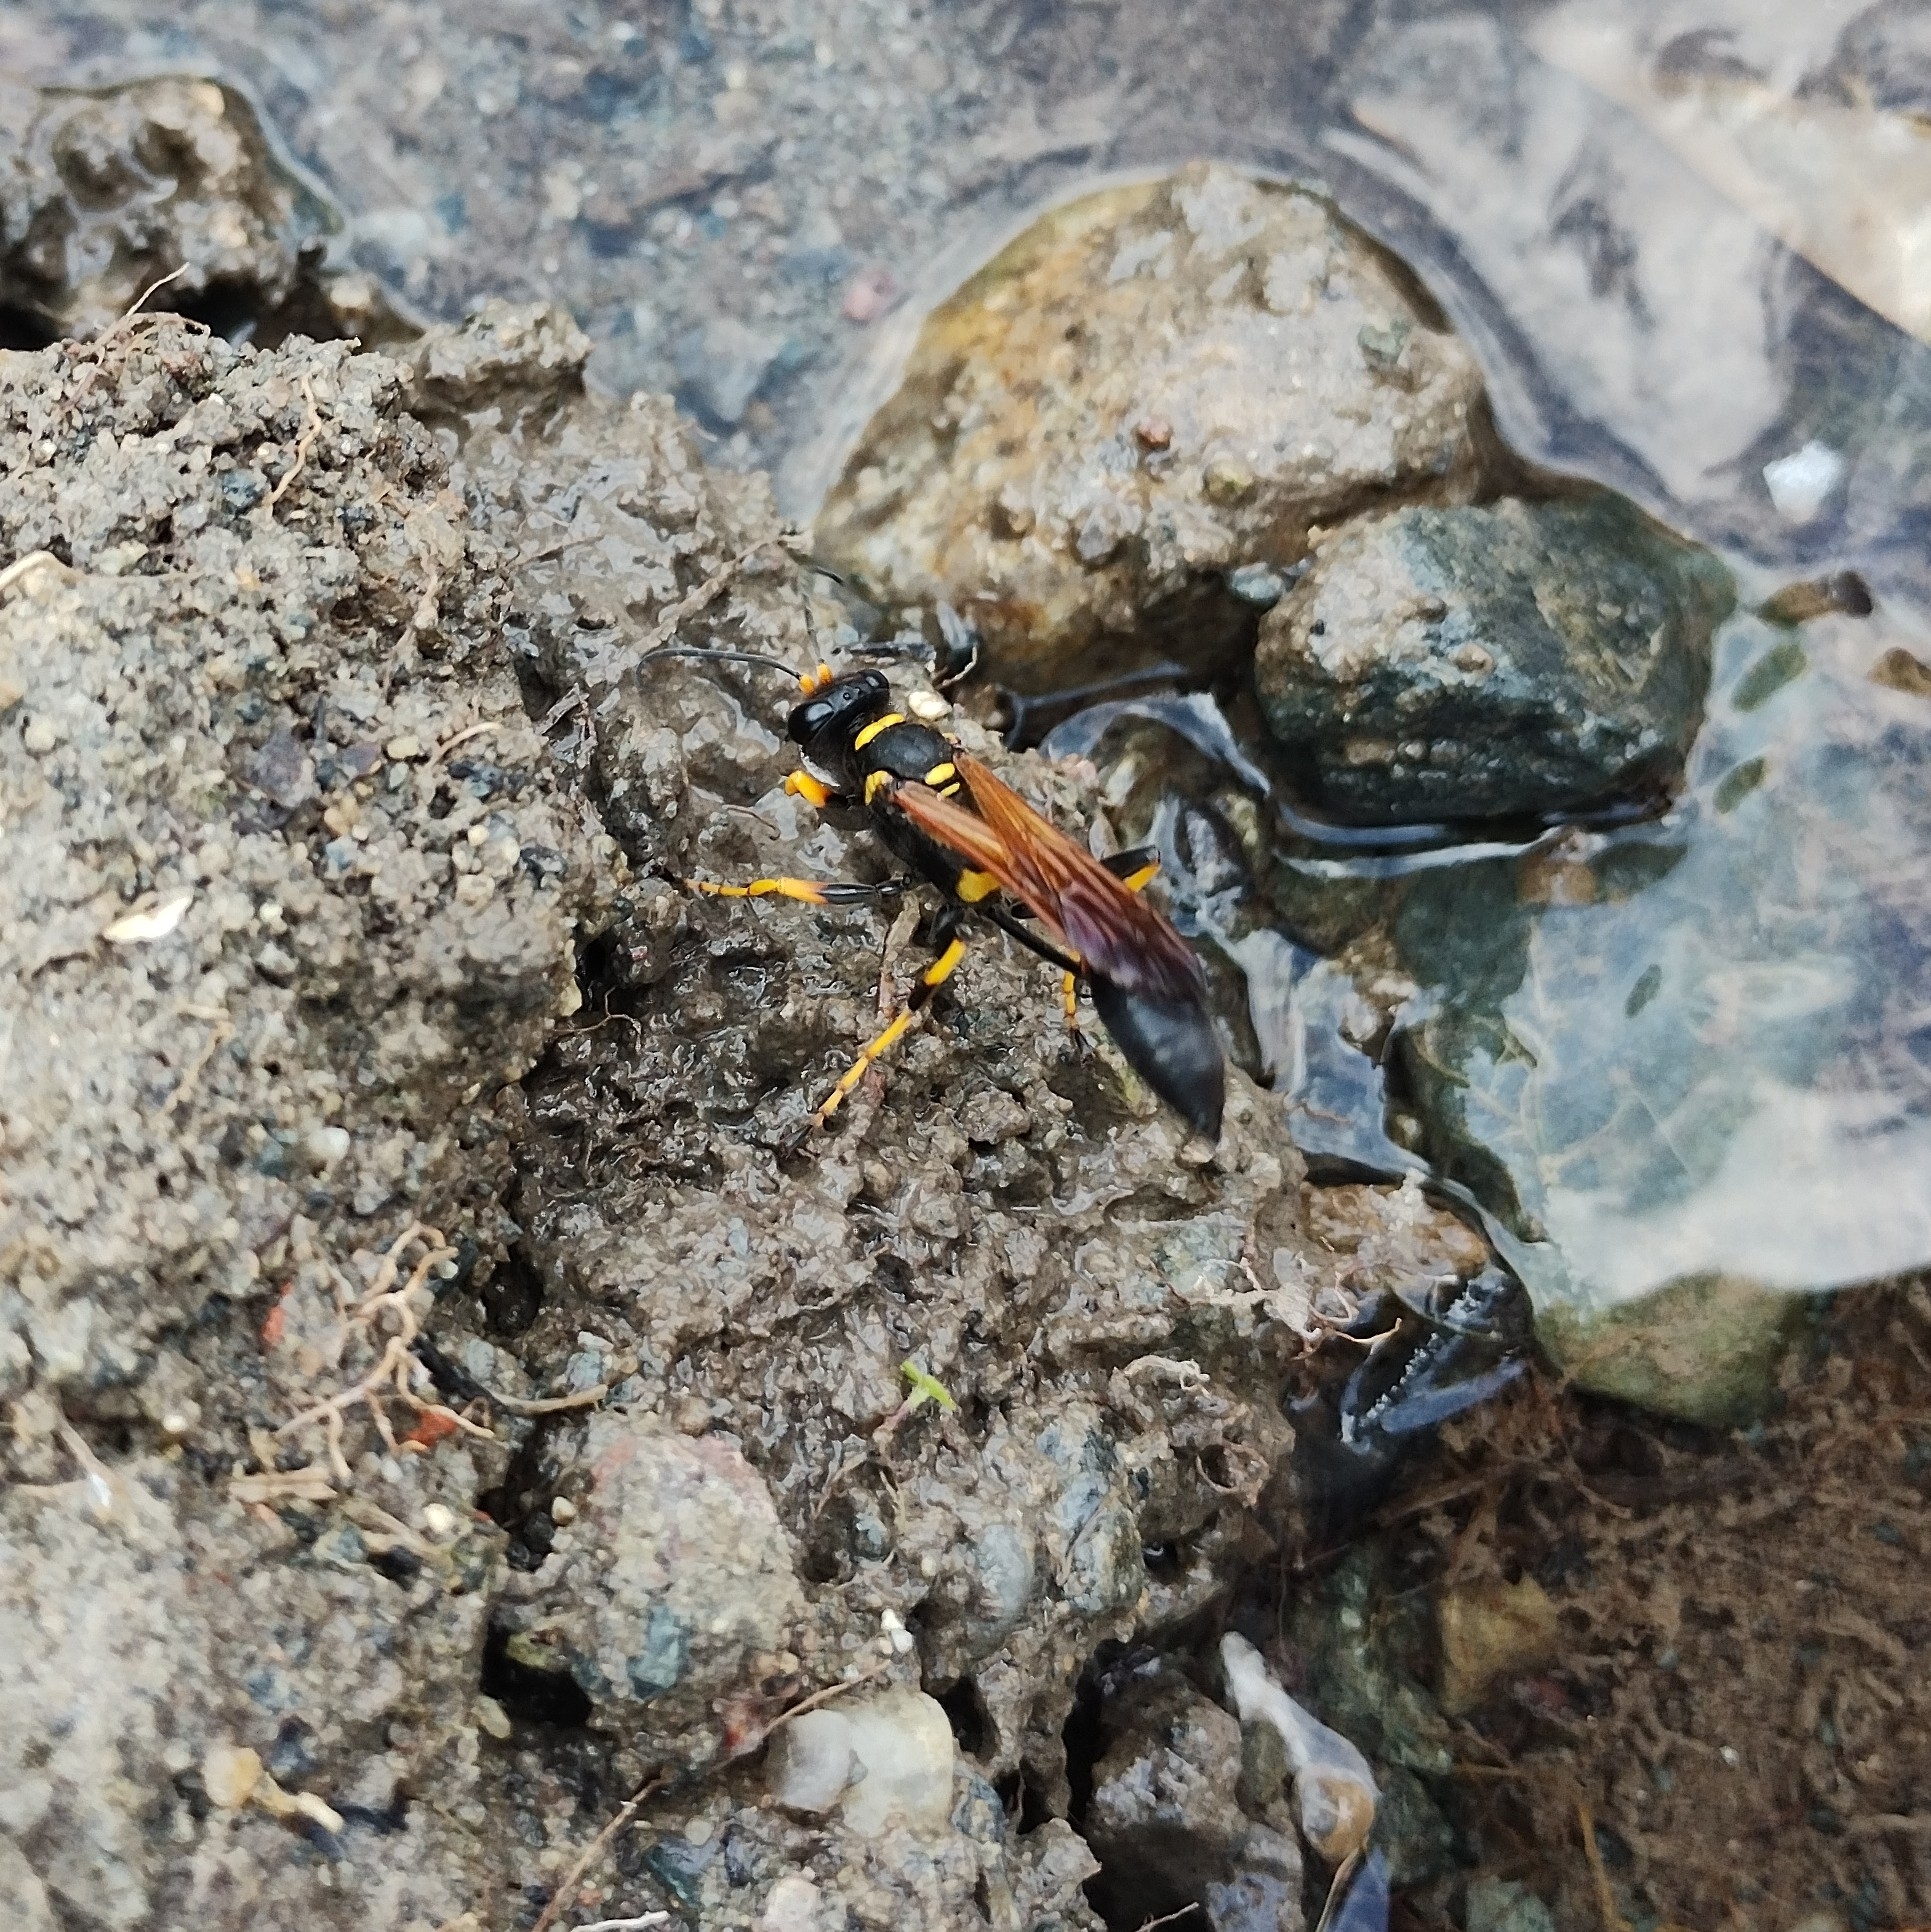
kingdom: Animalia
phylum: Arthropoda
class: Insecta
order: Hymenoptera
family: Sphecidae
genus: Sceliphron
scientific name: Sceliphron caementarium
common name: Mud dauber
